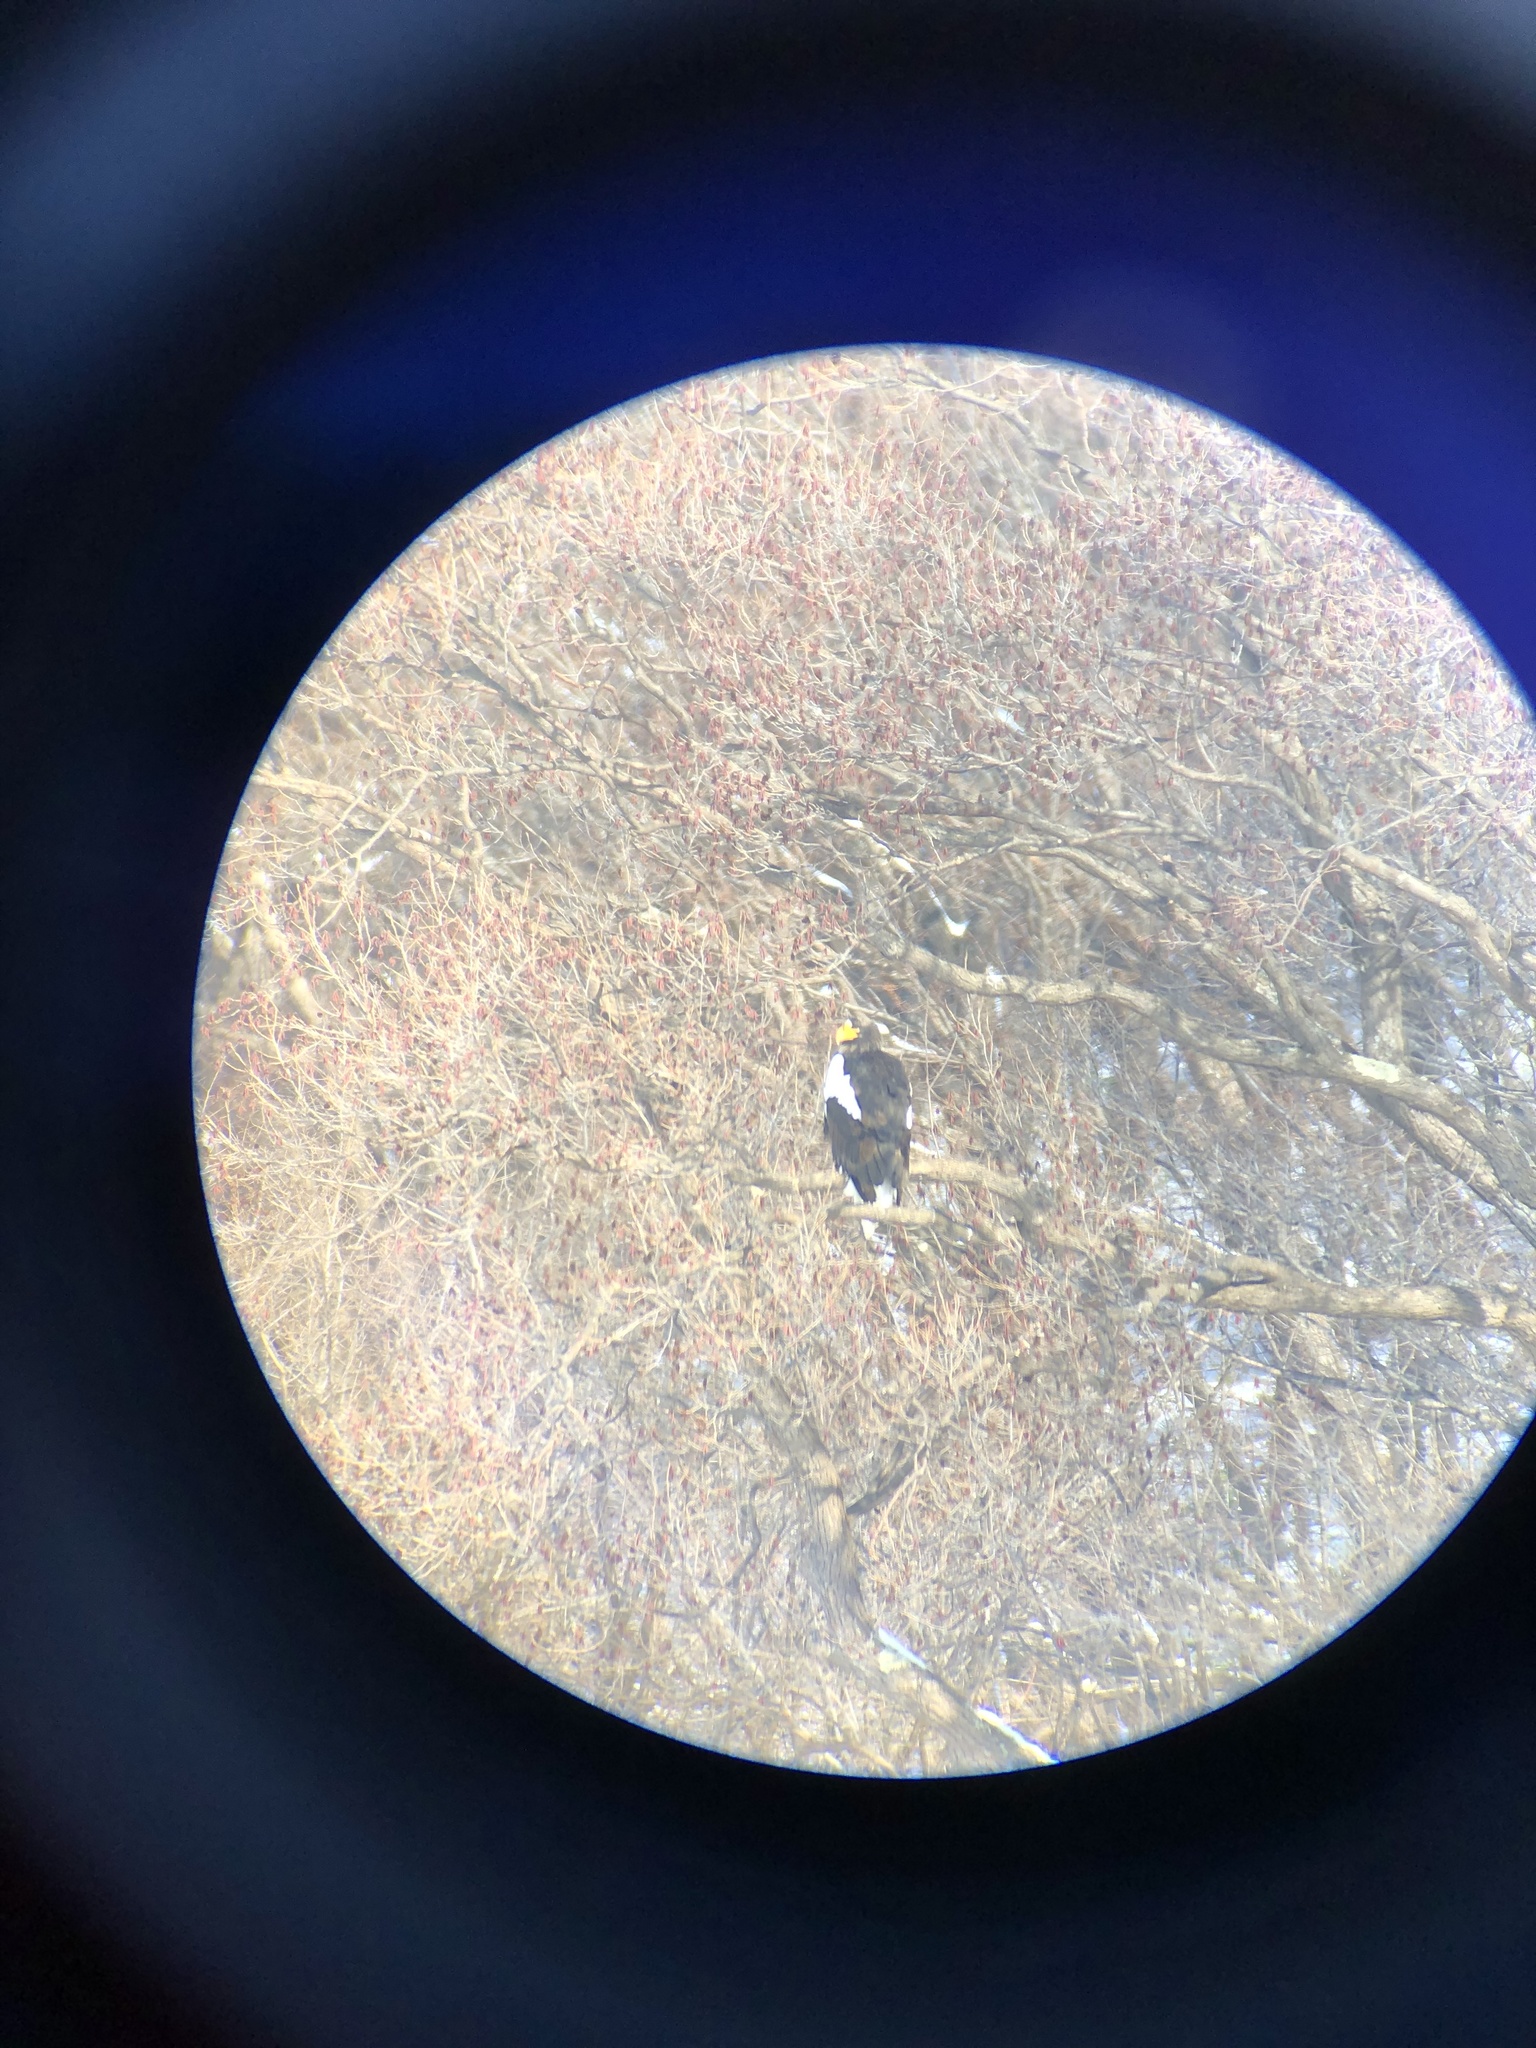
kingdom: Animalia
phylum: Chordata
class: Aves
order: Accipitriformes
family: Accipitridae
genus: Haliaeetus
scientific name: Haliaeetus pelagicus
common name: Steller's sea eagle
